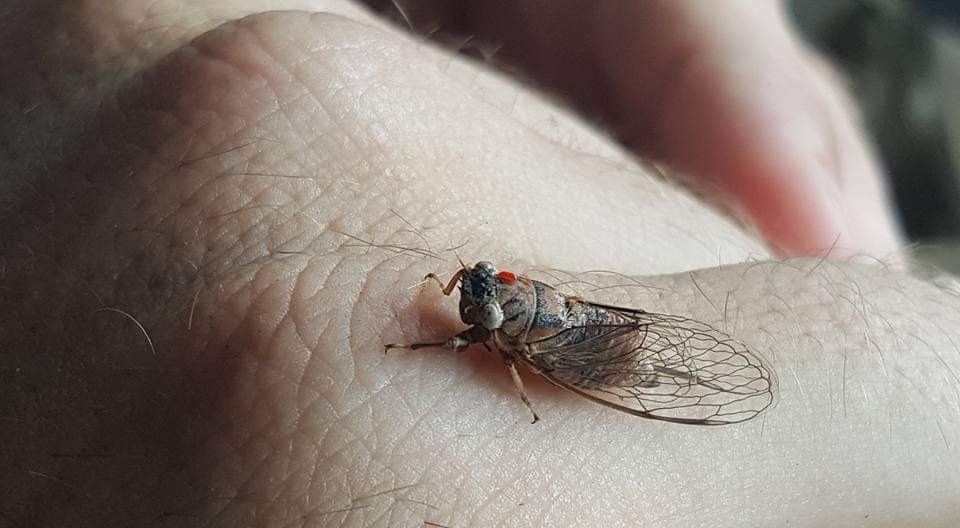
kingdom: Animalia
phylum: Arthropoda
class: Insecta
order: Hemiptera
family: Cicadidae
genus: Cicadettana
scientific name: Cicadettana calliope
